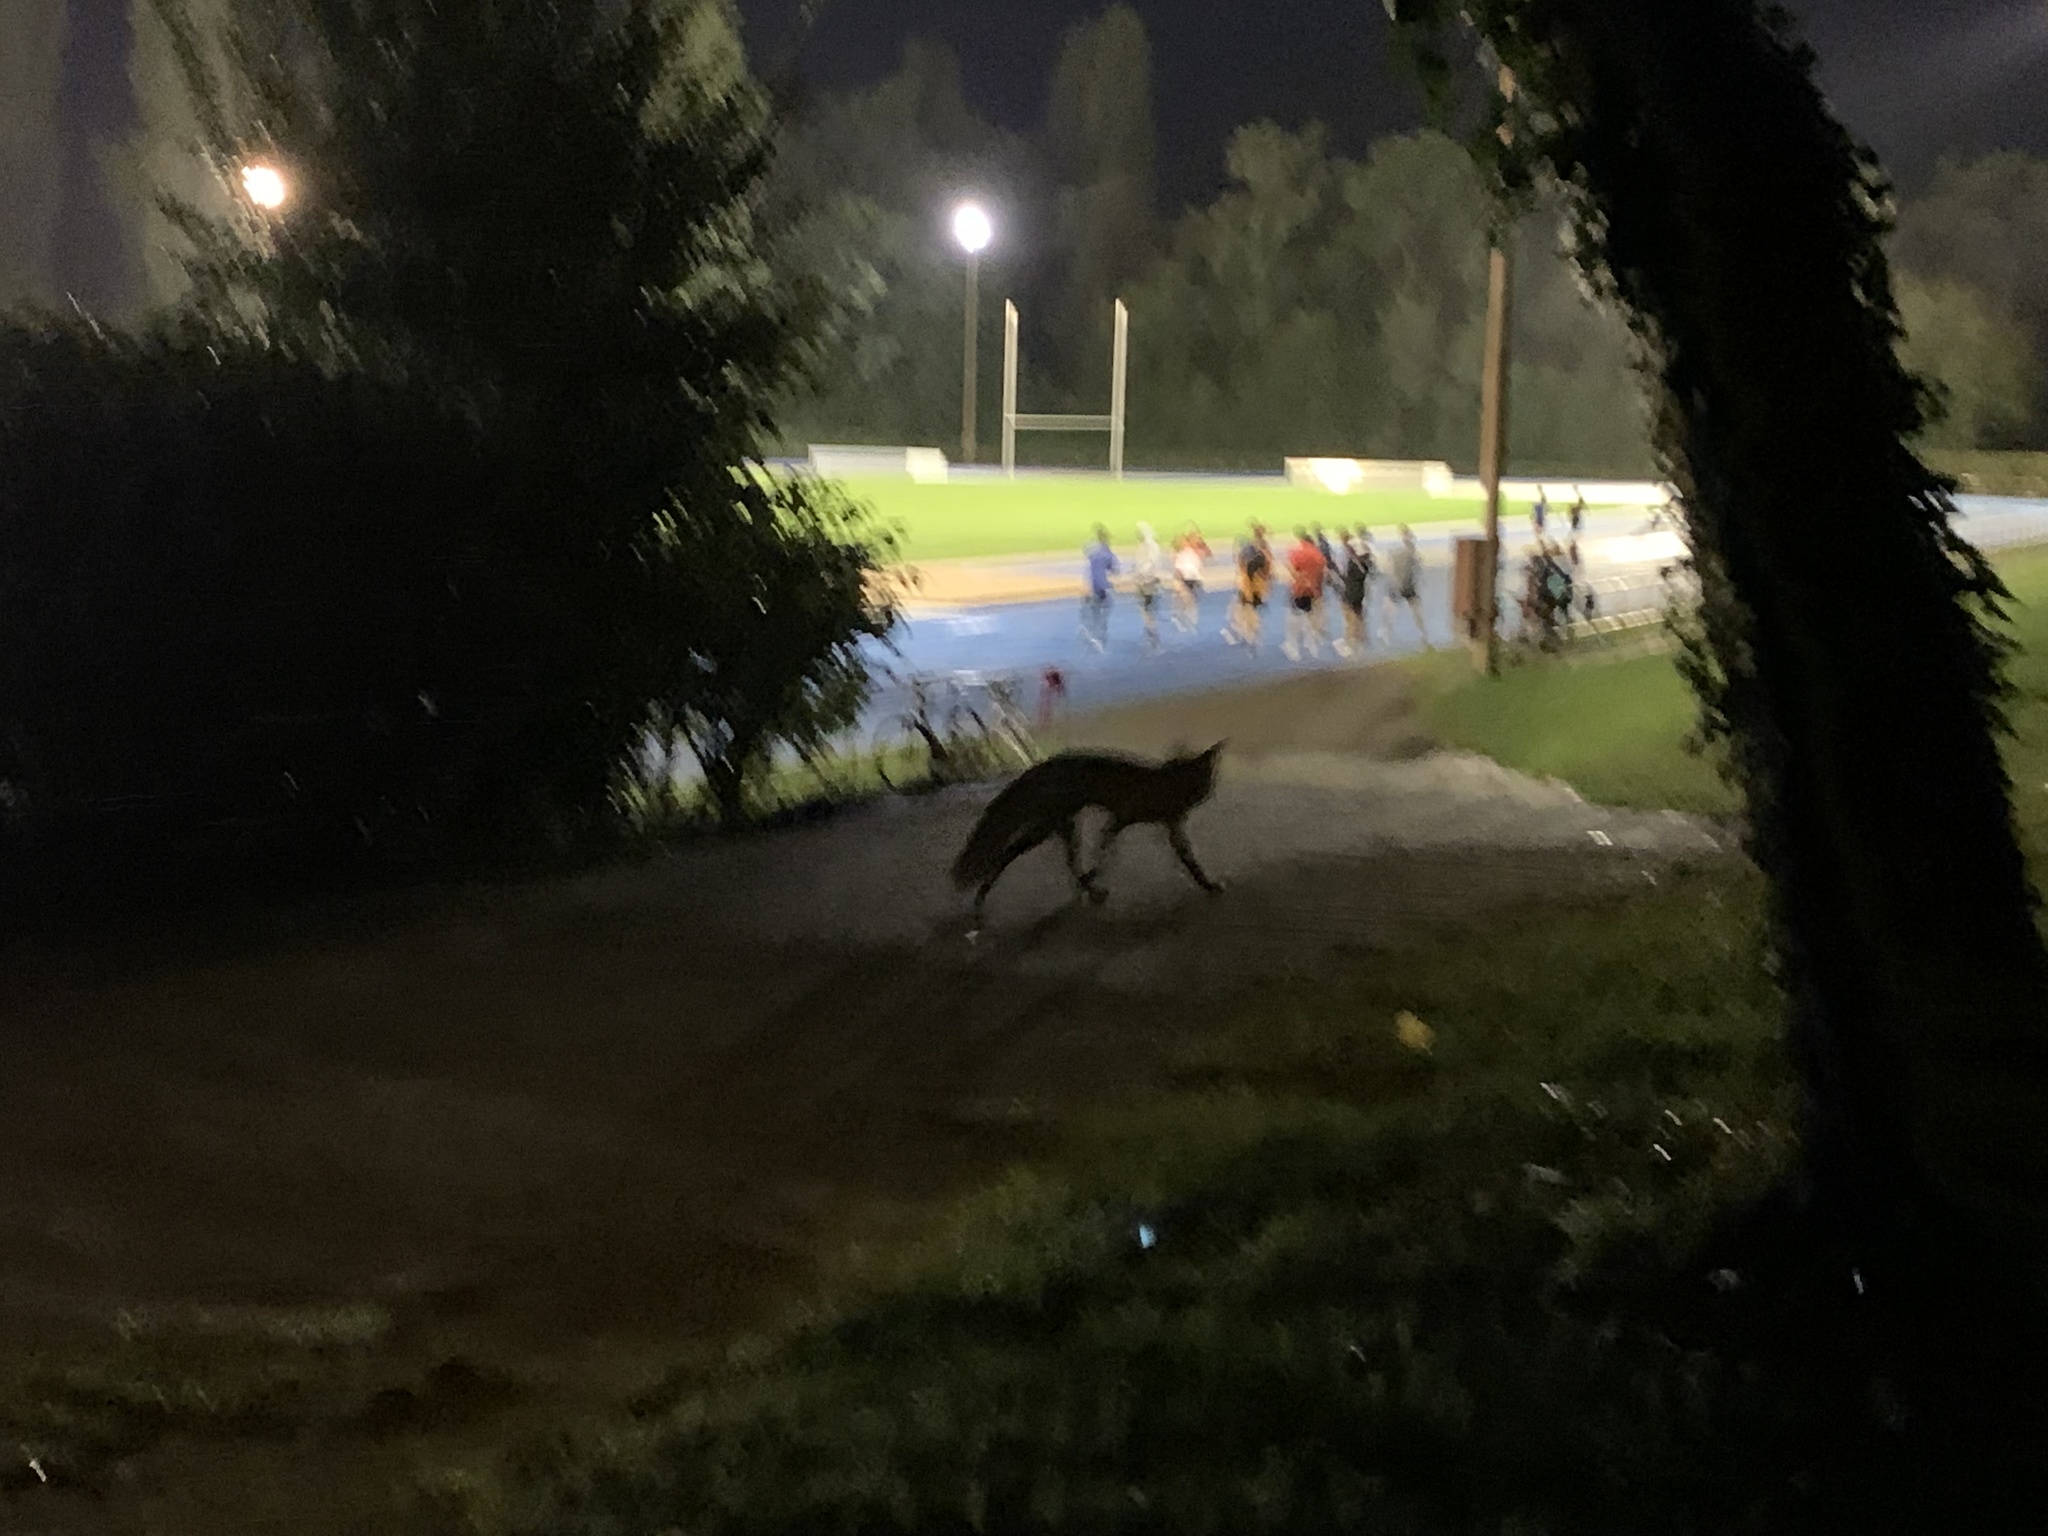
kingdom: Animalia
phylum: Chordata
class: Mammalia
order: Carnivora
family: Canidae
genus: Vulpes
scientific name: Vulpes vulpes
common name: Red fox
